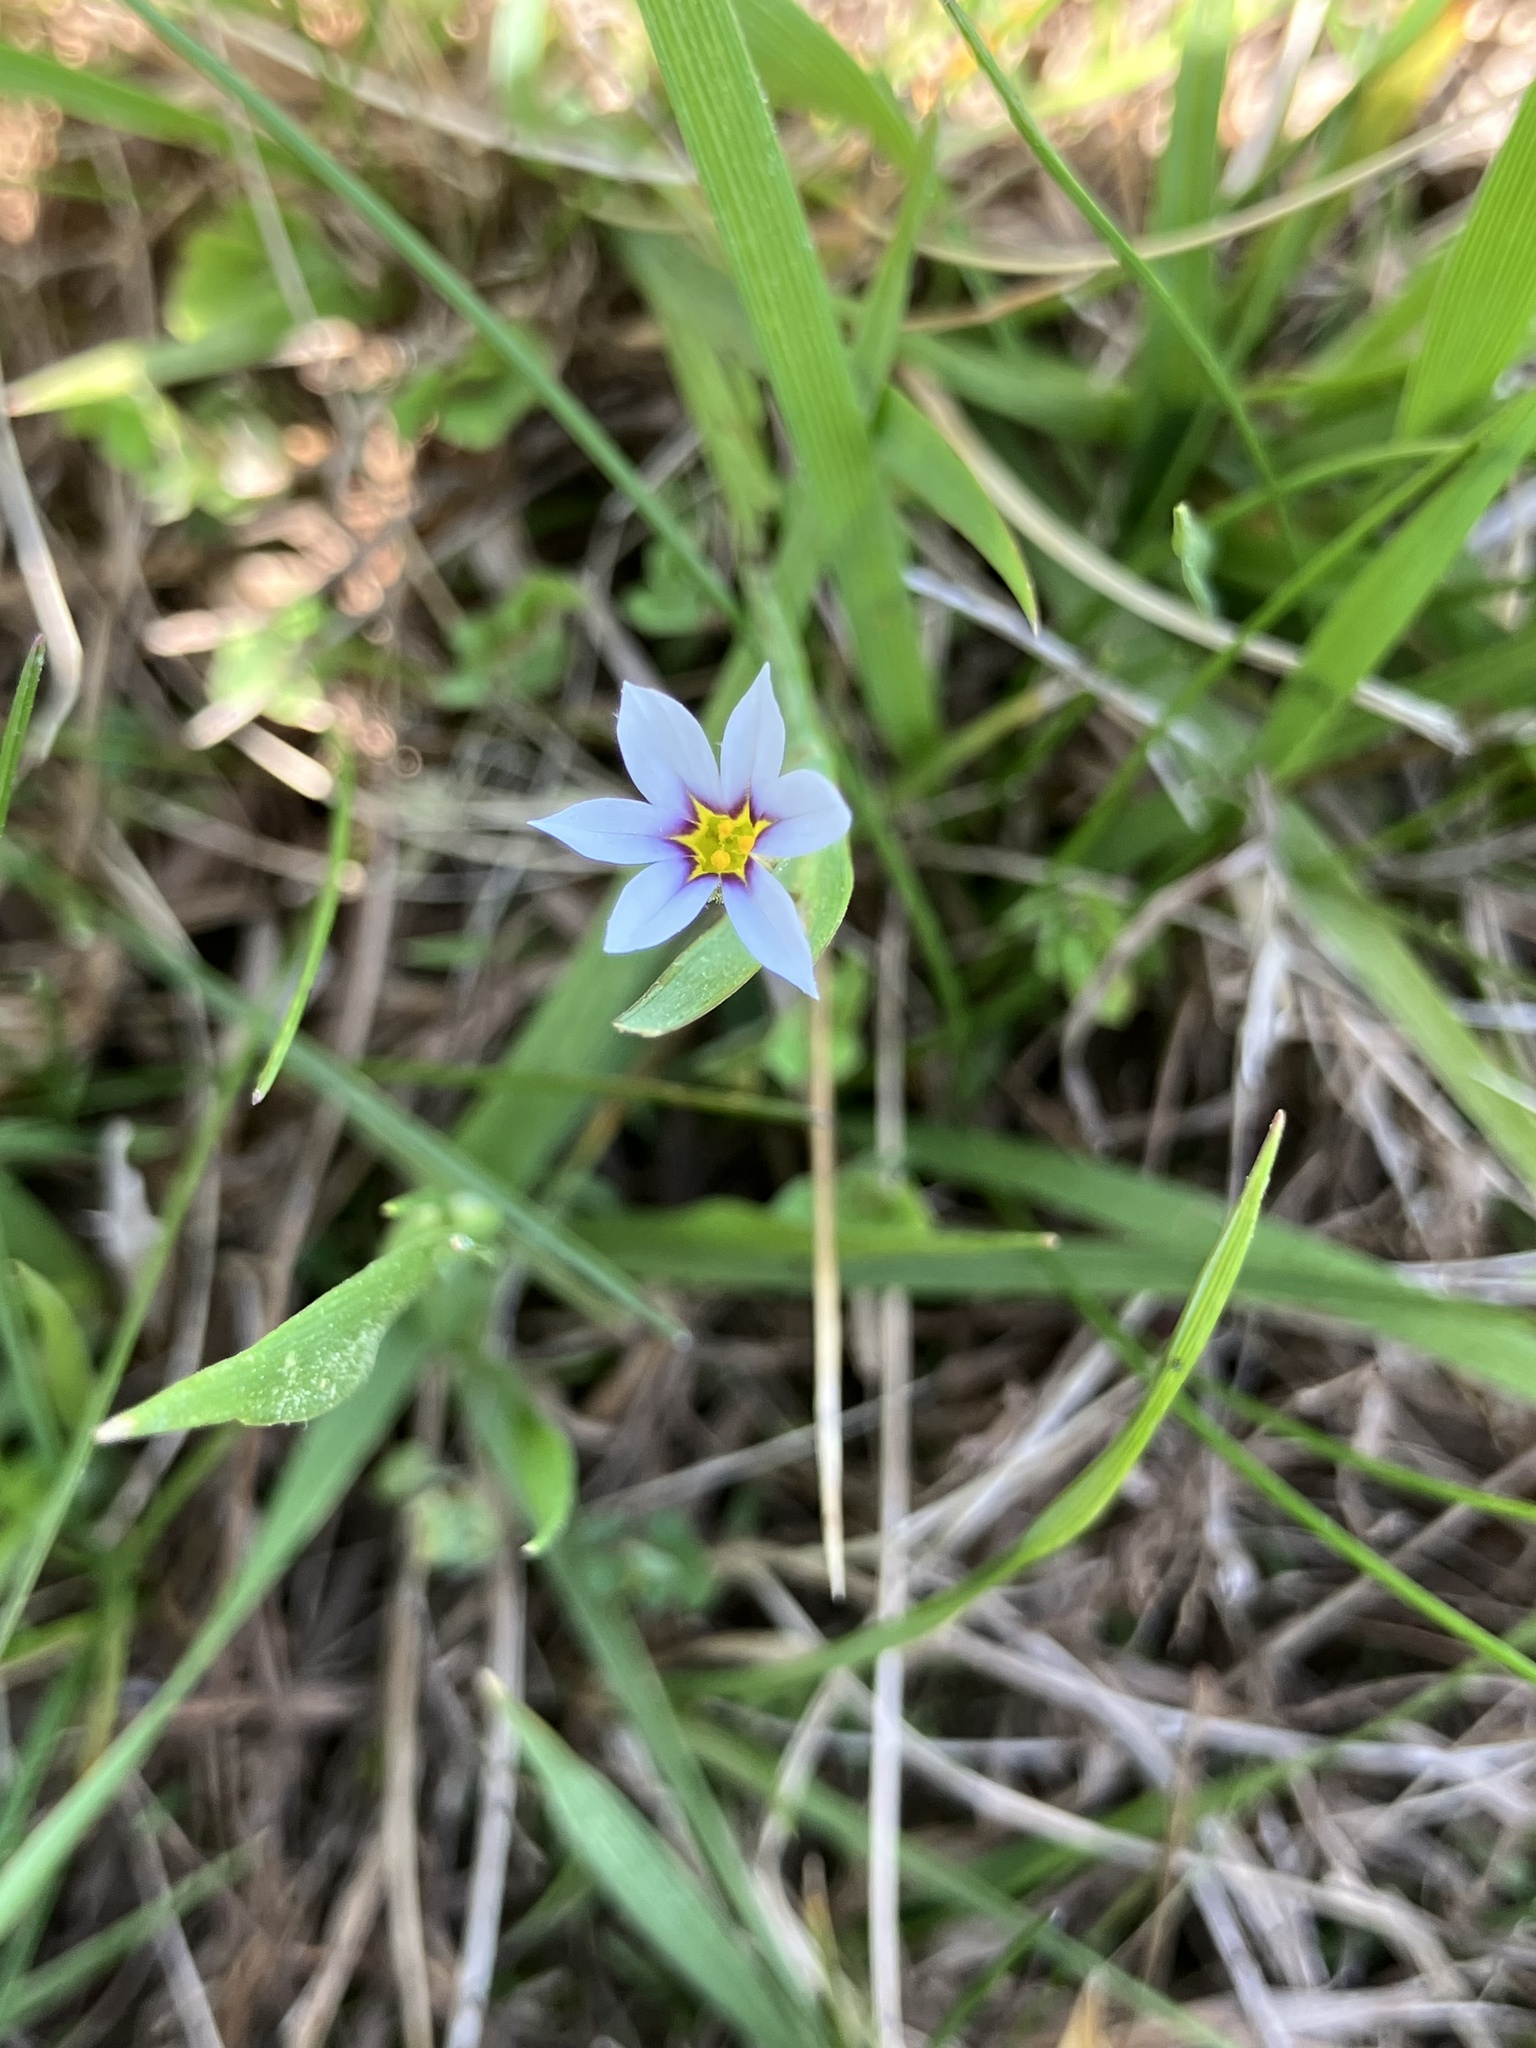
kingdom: Plantae
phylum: Tracheophyta
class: Liliopsida
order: Asparagales
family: Iridaceae
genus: Sisyrinchium
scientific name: Sisyrinchium micranthum
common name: Bermuda pigroot
